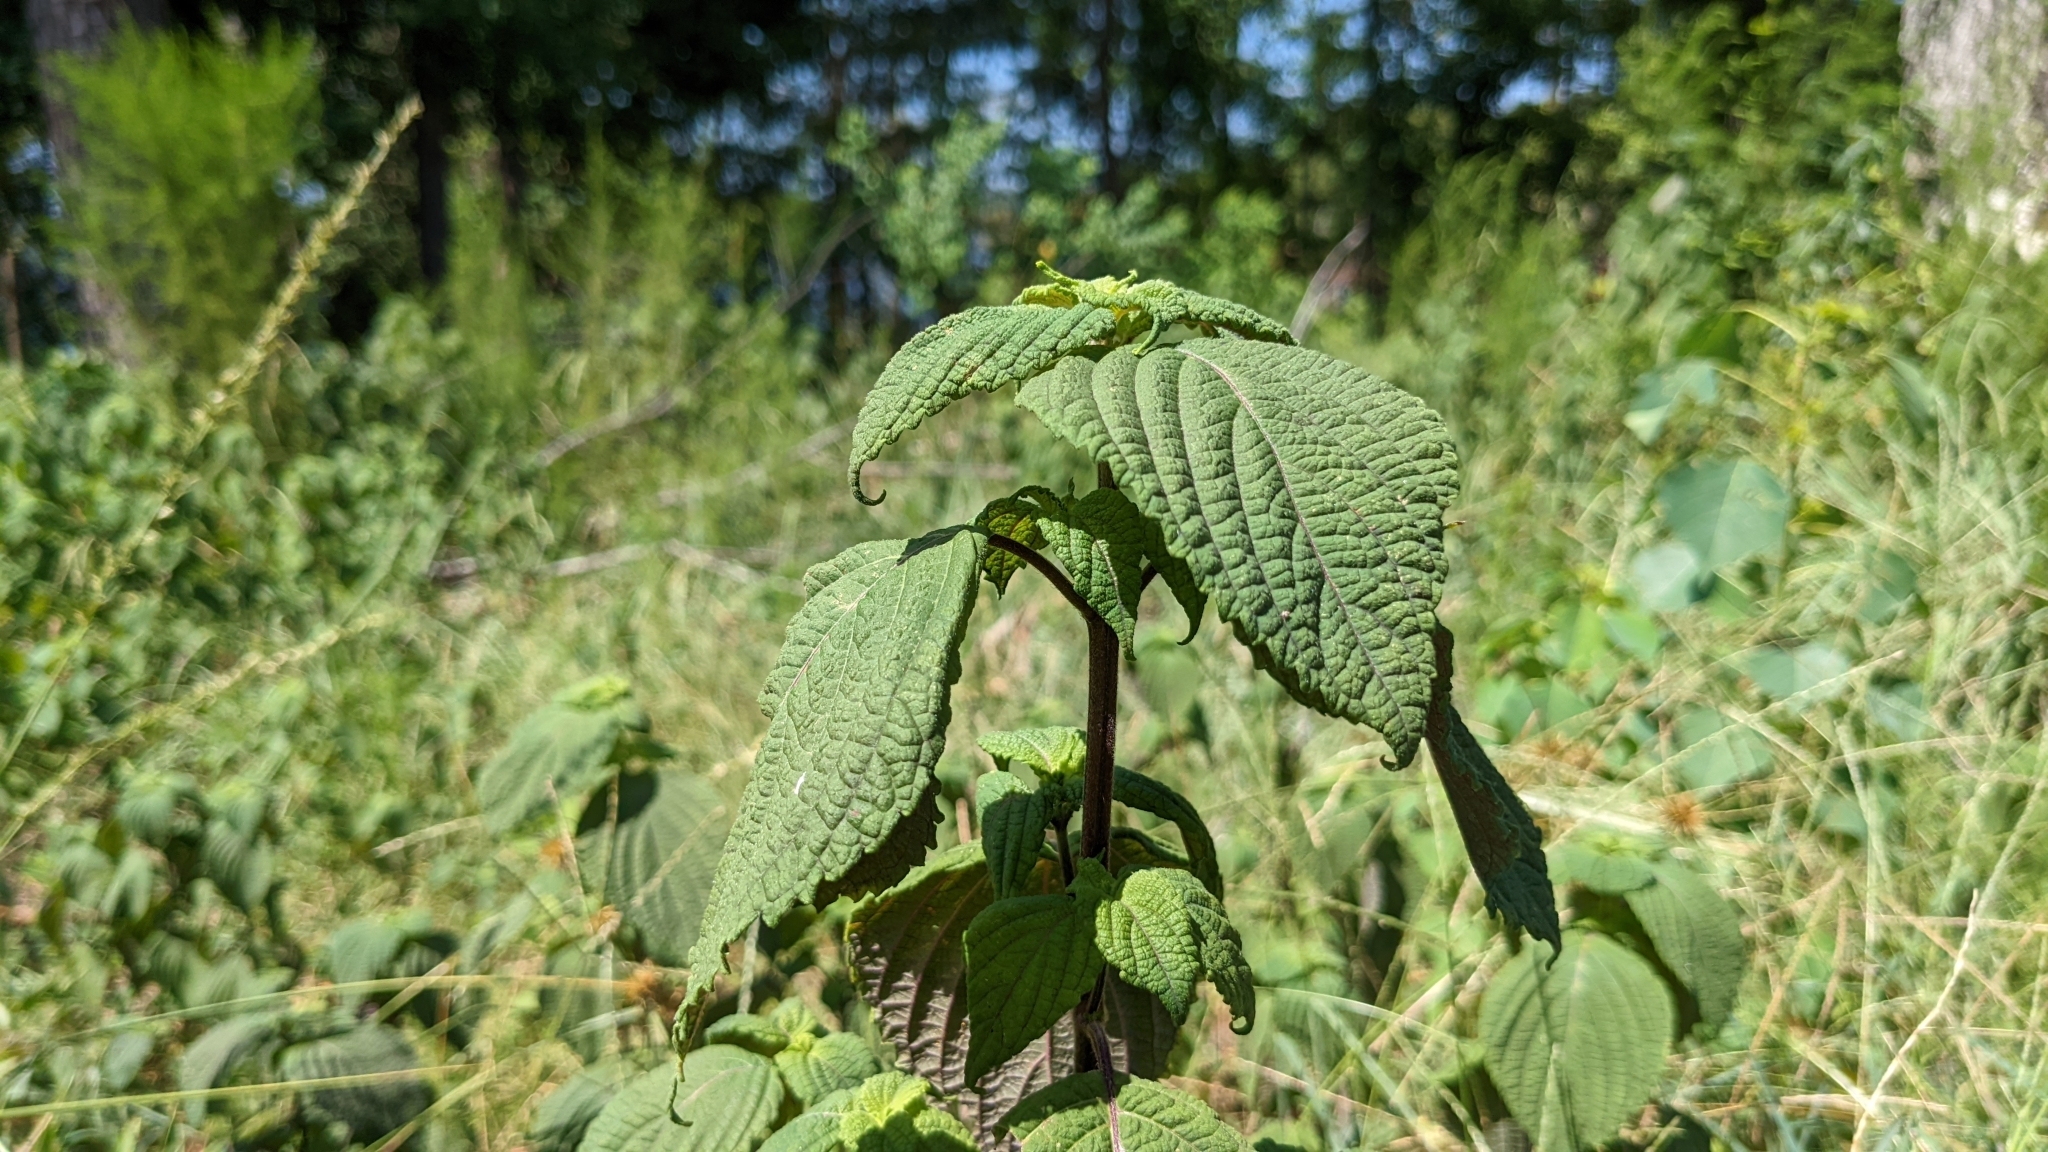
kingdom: Plantae
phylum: Tracheophyta
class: Magnoliopsida
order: Lamiales
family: Lamiaceae
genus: Perilla
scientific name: Perilla frutescens
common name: Perilla
